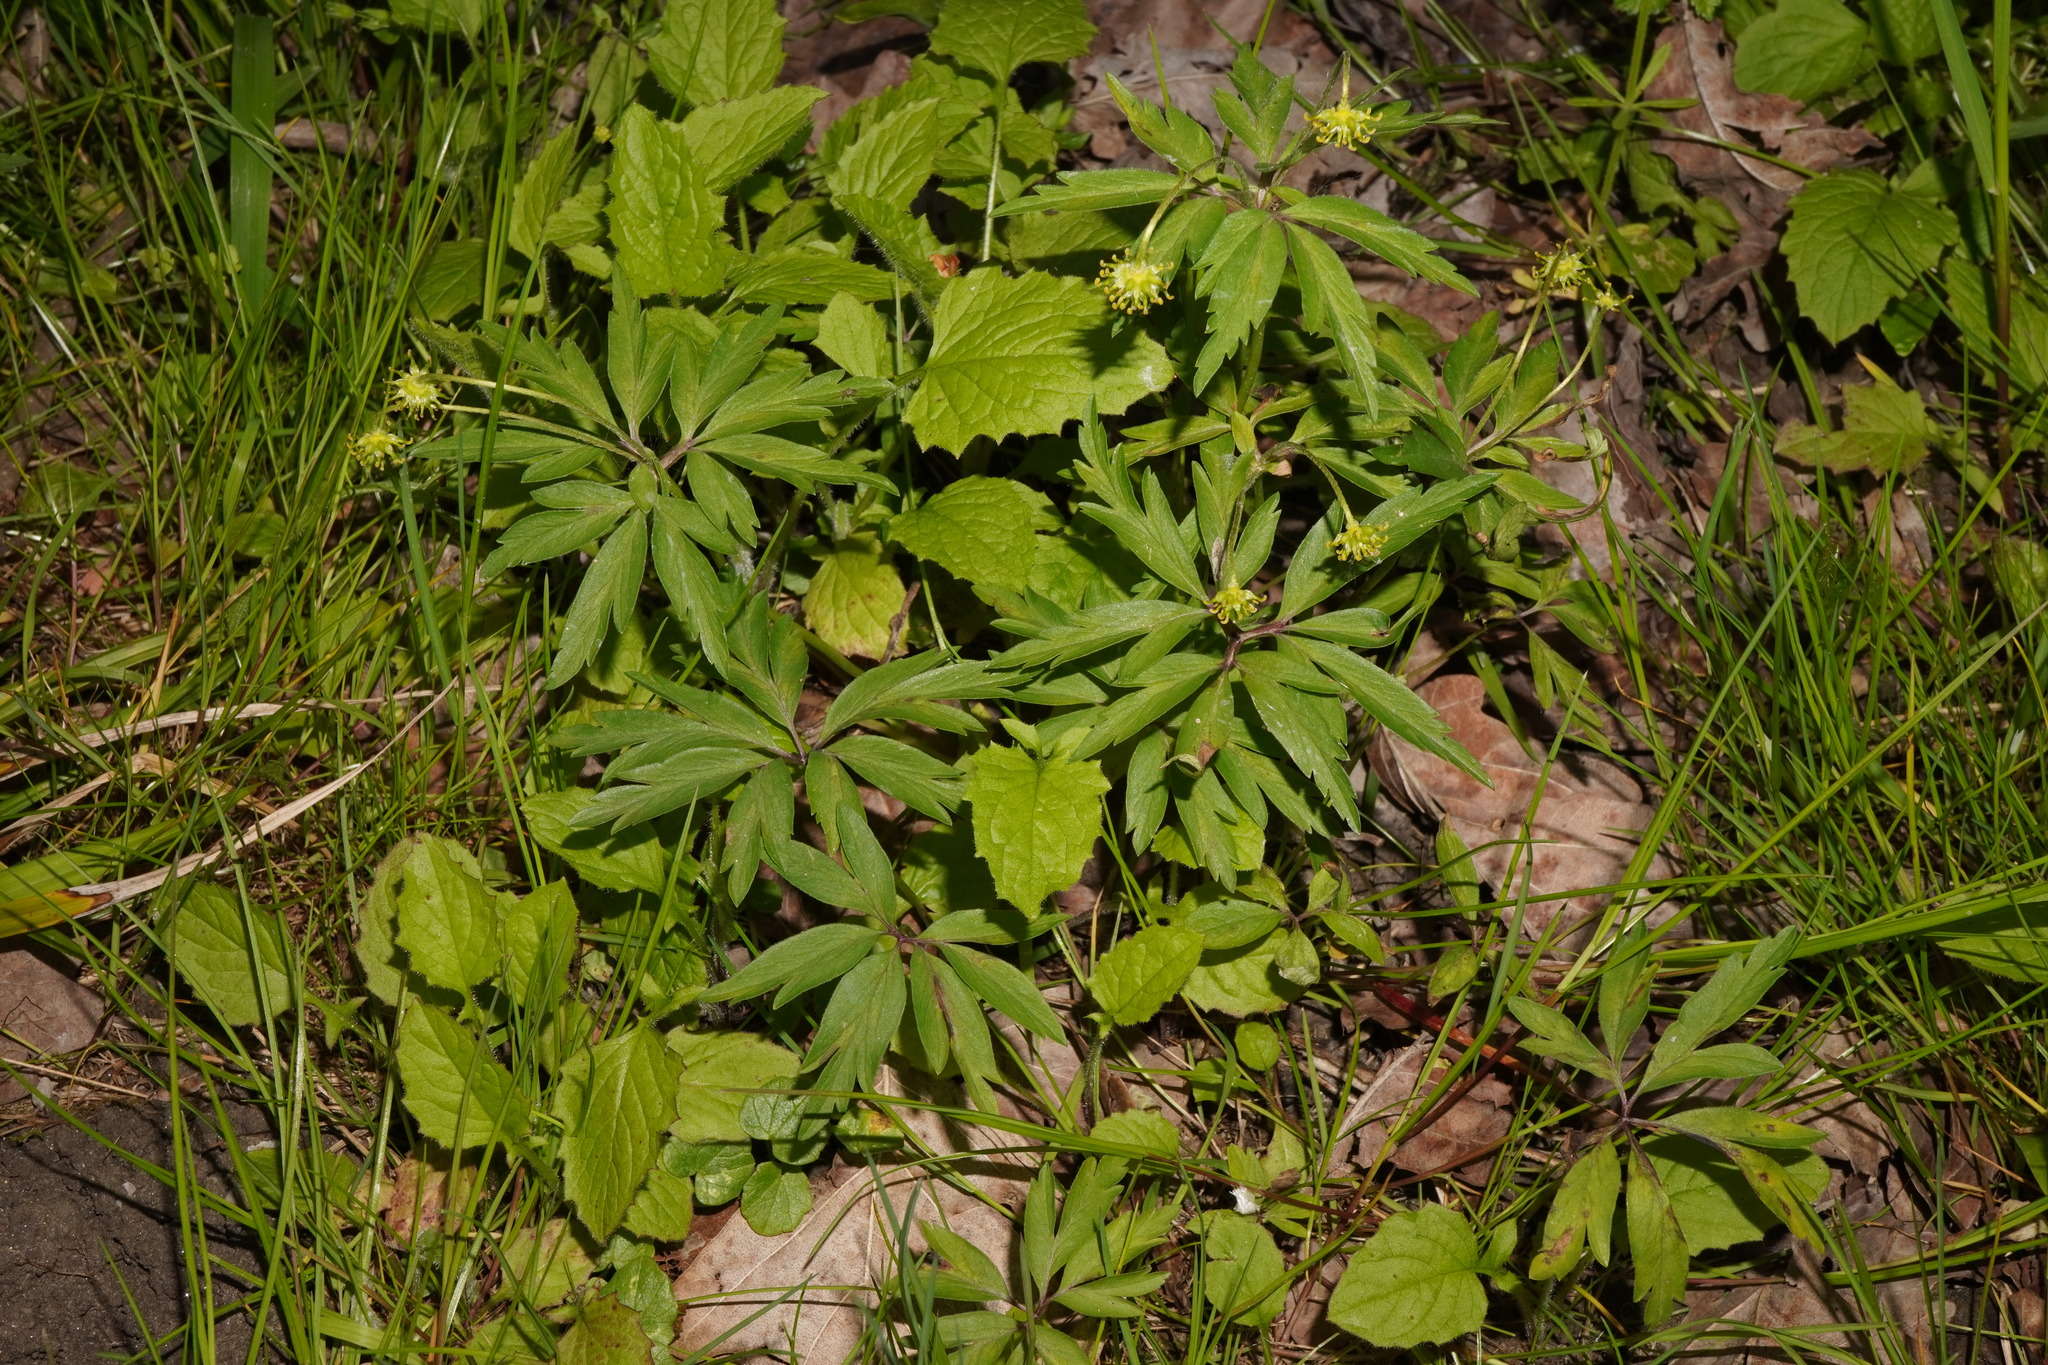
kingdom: Plantae
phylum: Tracheophyta
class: Magnoliopsida
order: Ranunculales
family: Ranunculaceae
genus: Anemone
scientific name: Anemone ranunculoides
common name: Yellow anemone
